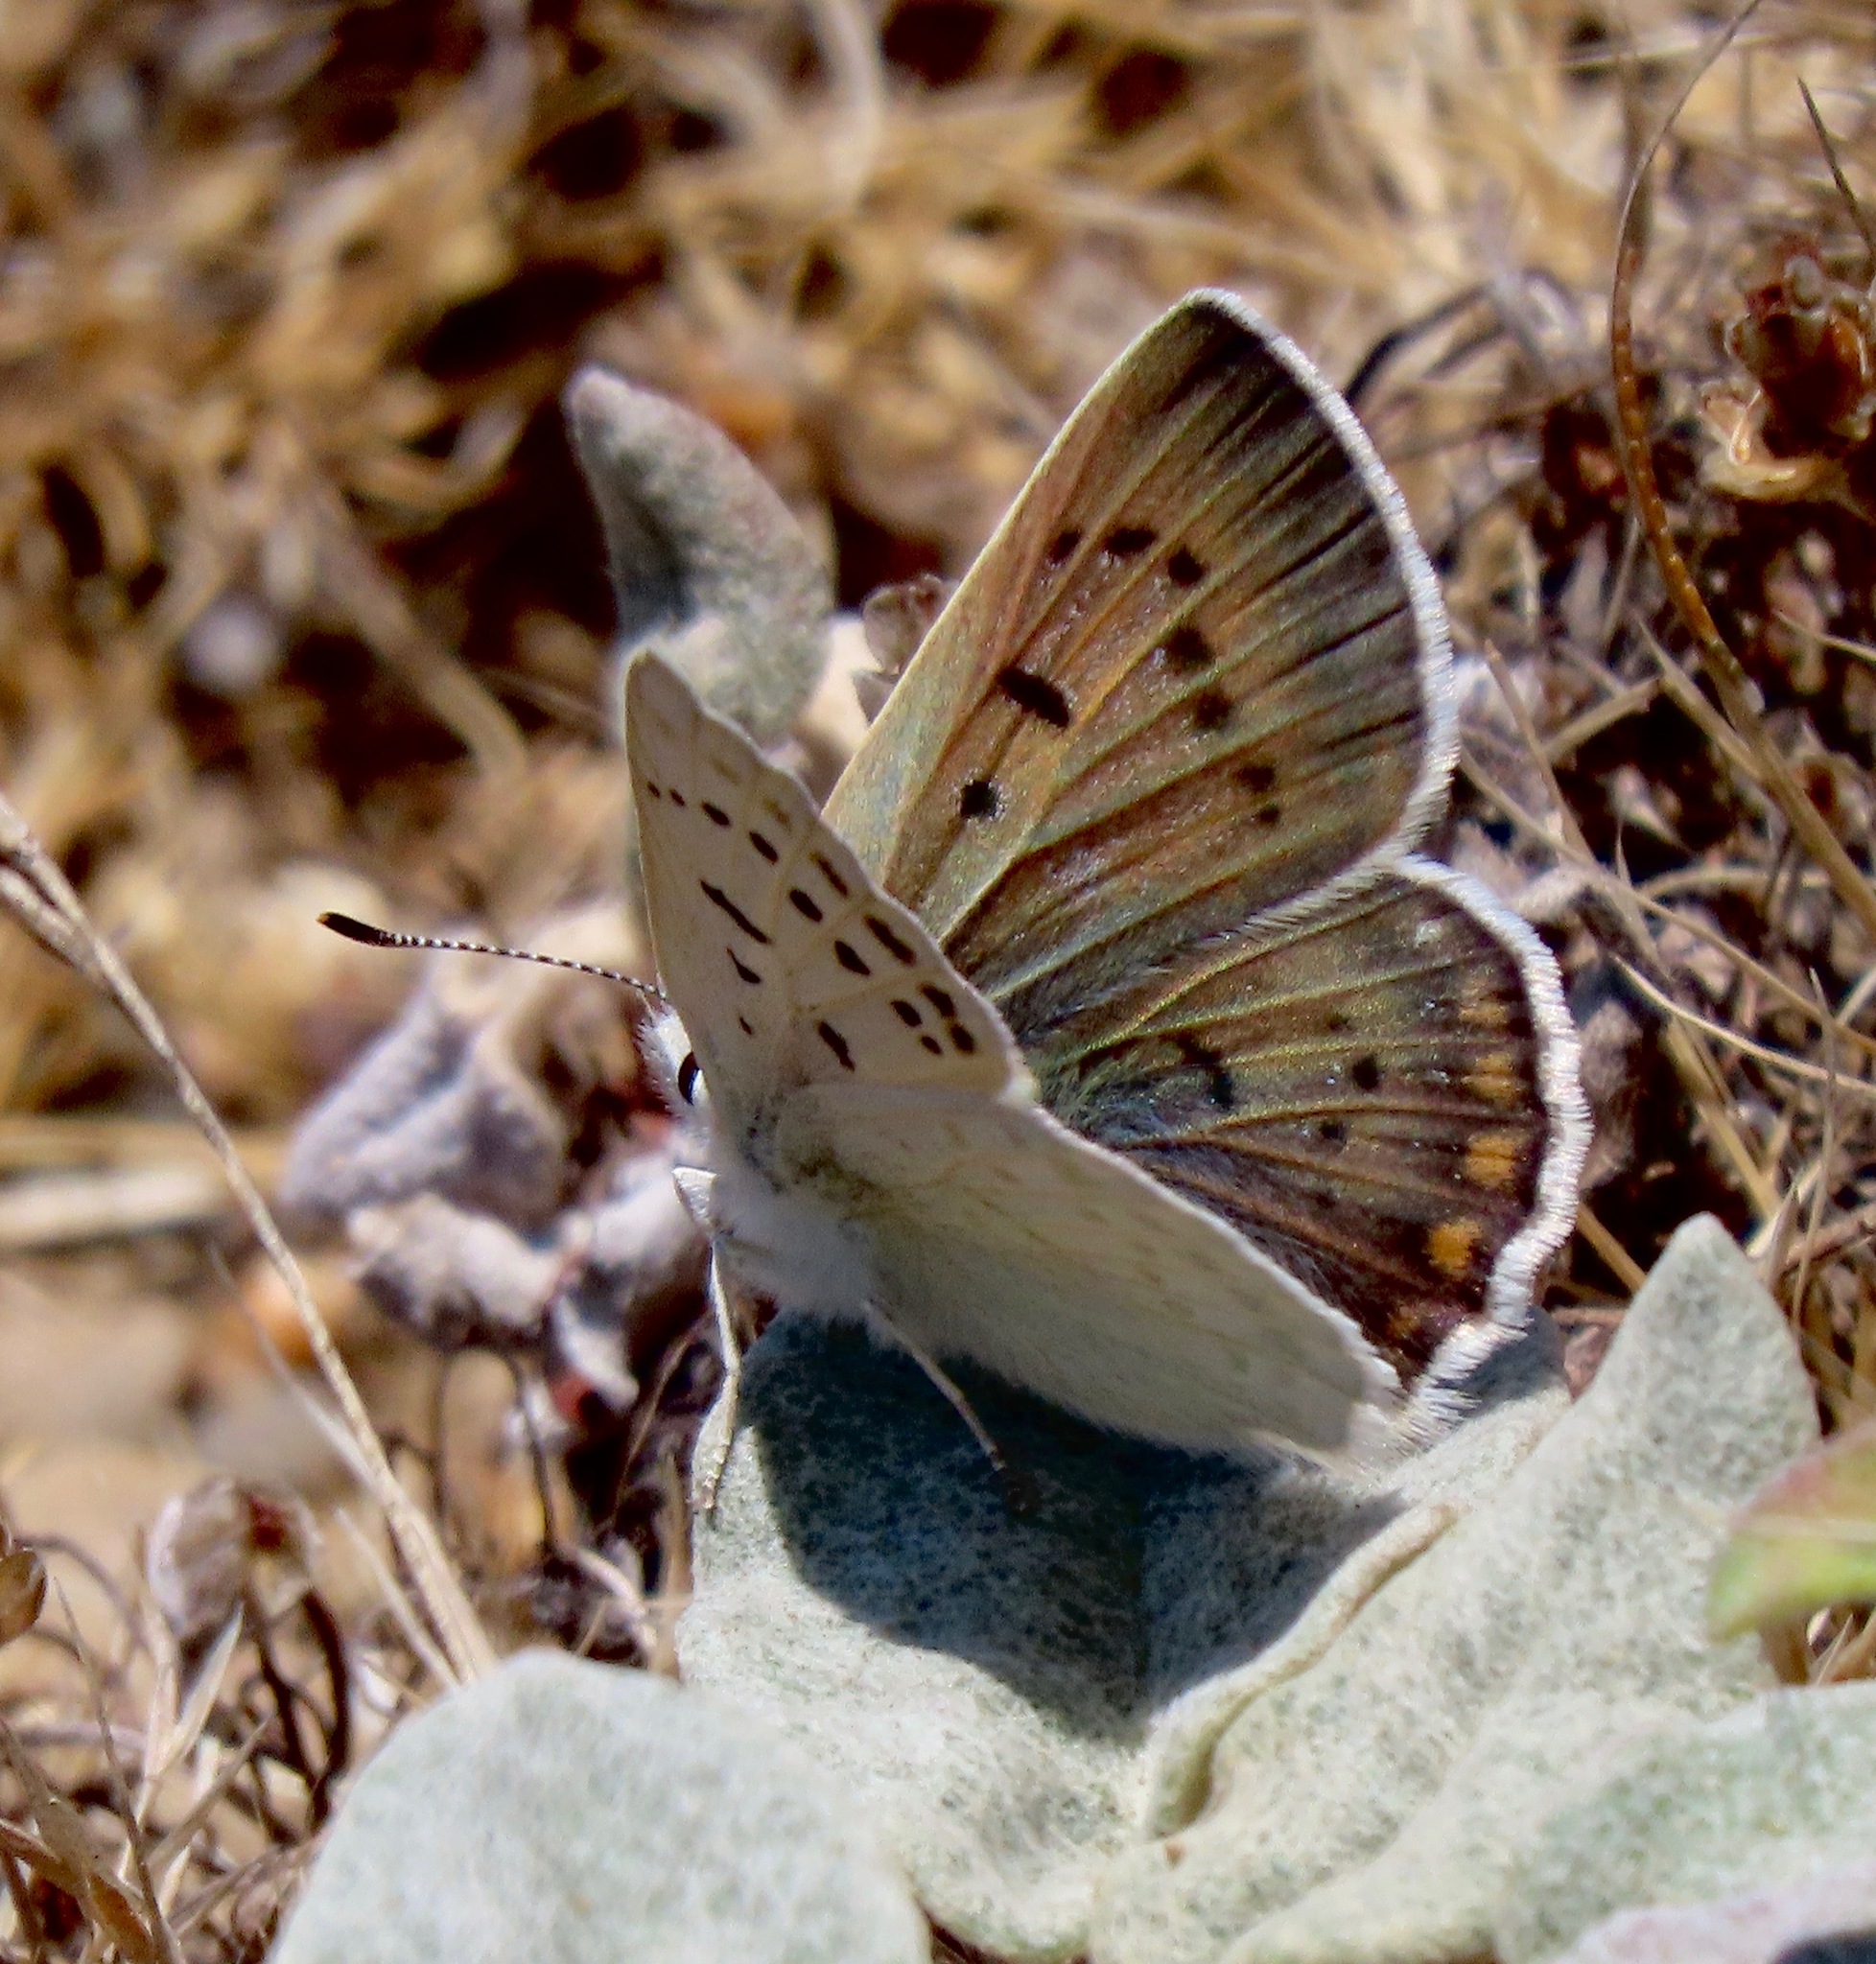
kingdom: Animalia
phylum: Arthropoda
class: Insecta
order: Lepidoptera
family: Lycaenidae
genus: Tharsalea
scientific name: Tharsalea heteronea
